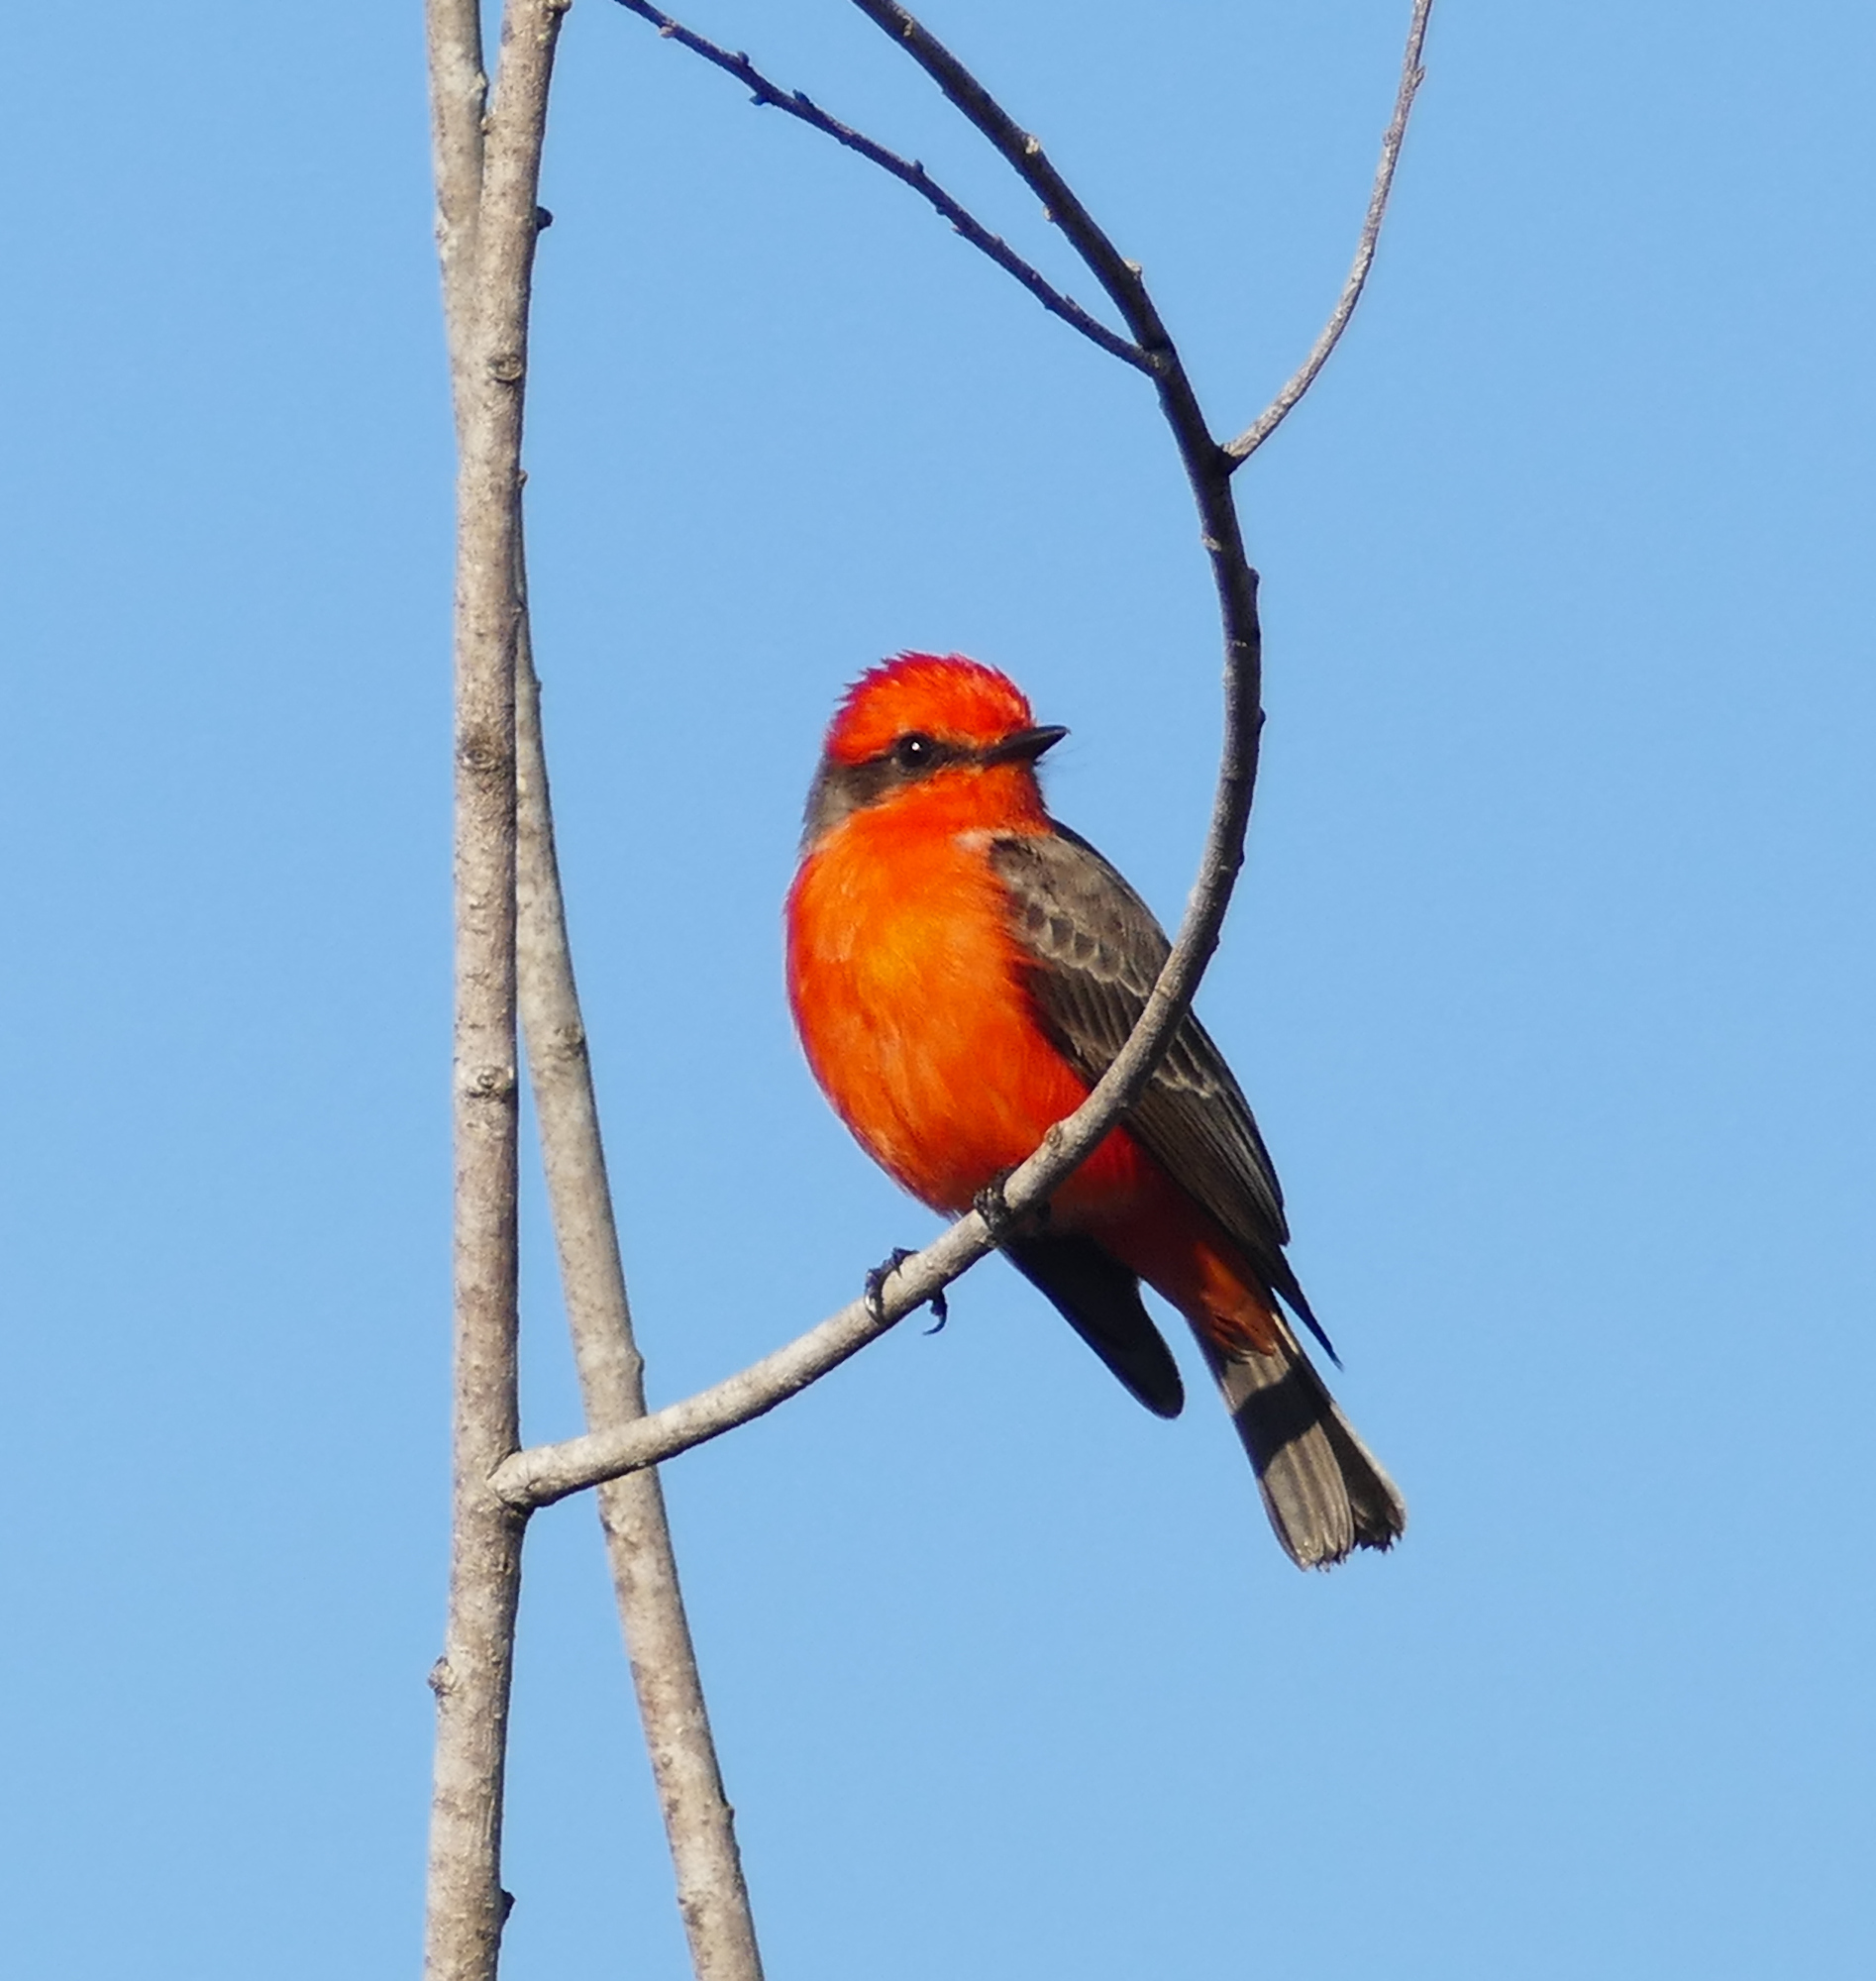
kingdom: Animalia
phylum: Chordata
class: Aves
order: Passeriformes
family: Tyrannidae
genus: Pyrocephalus
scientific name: Pyrocephalus rubinus
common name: Vermilion flycatcher
